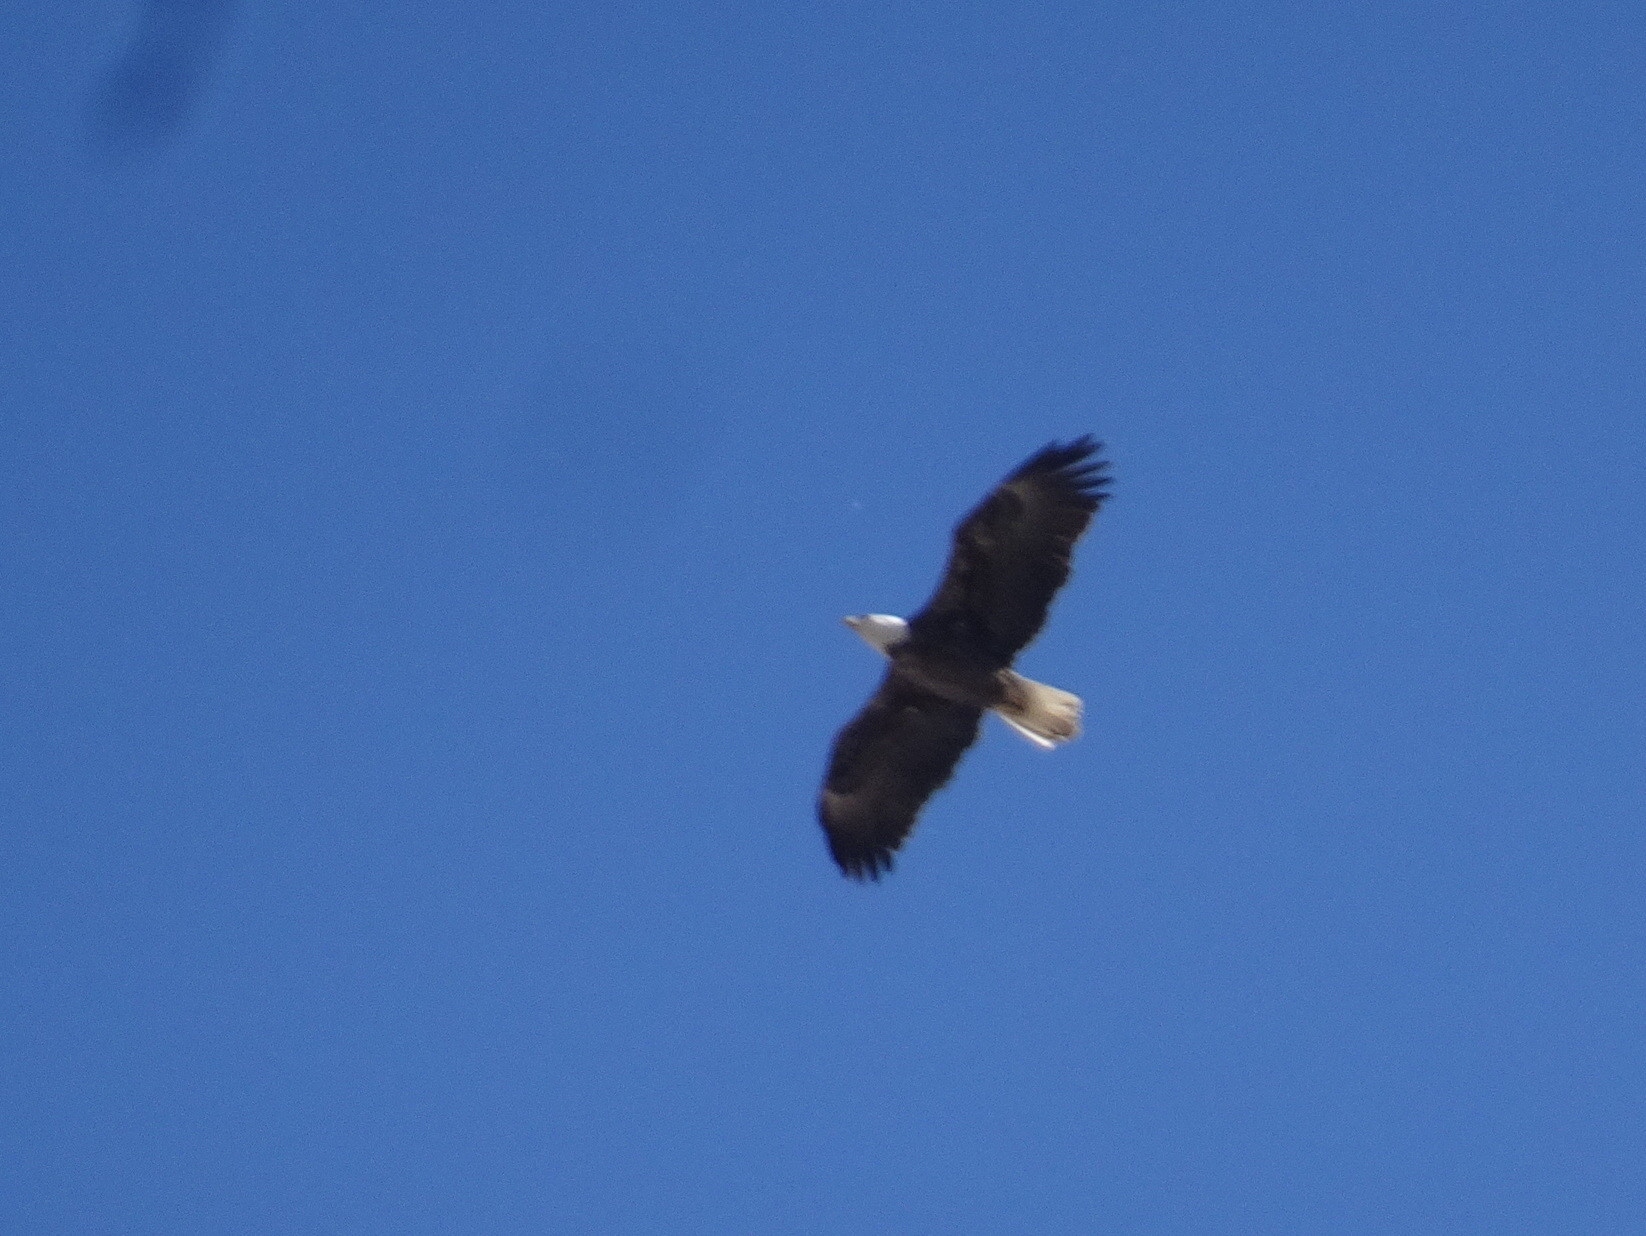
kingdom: Animalia
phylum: Chordata
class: Aves
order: Accipitriformes
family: Accipitridae
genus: Haliaeetus
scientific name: Haliaeetus leucocephalus
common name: Bald eagle
